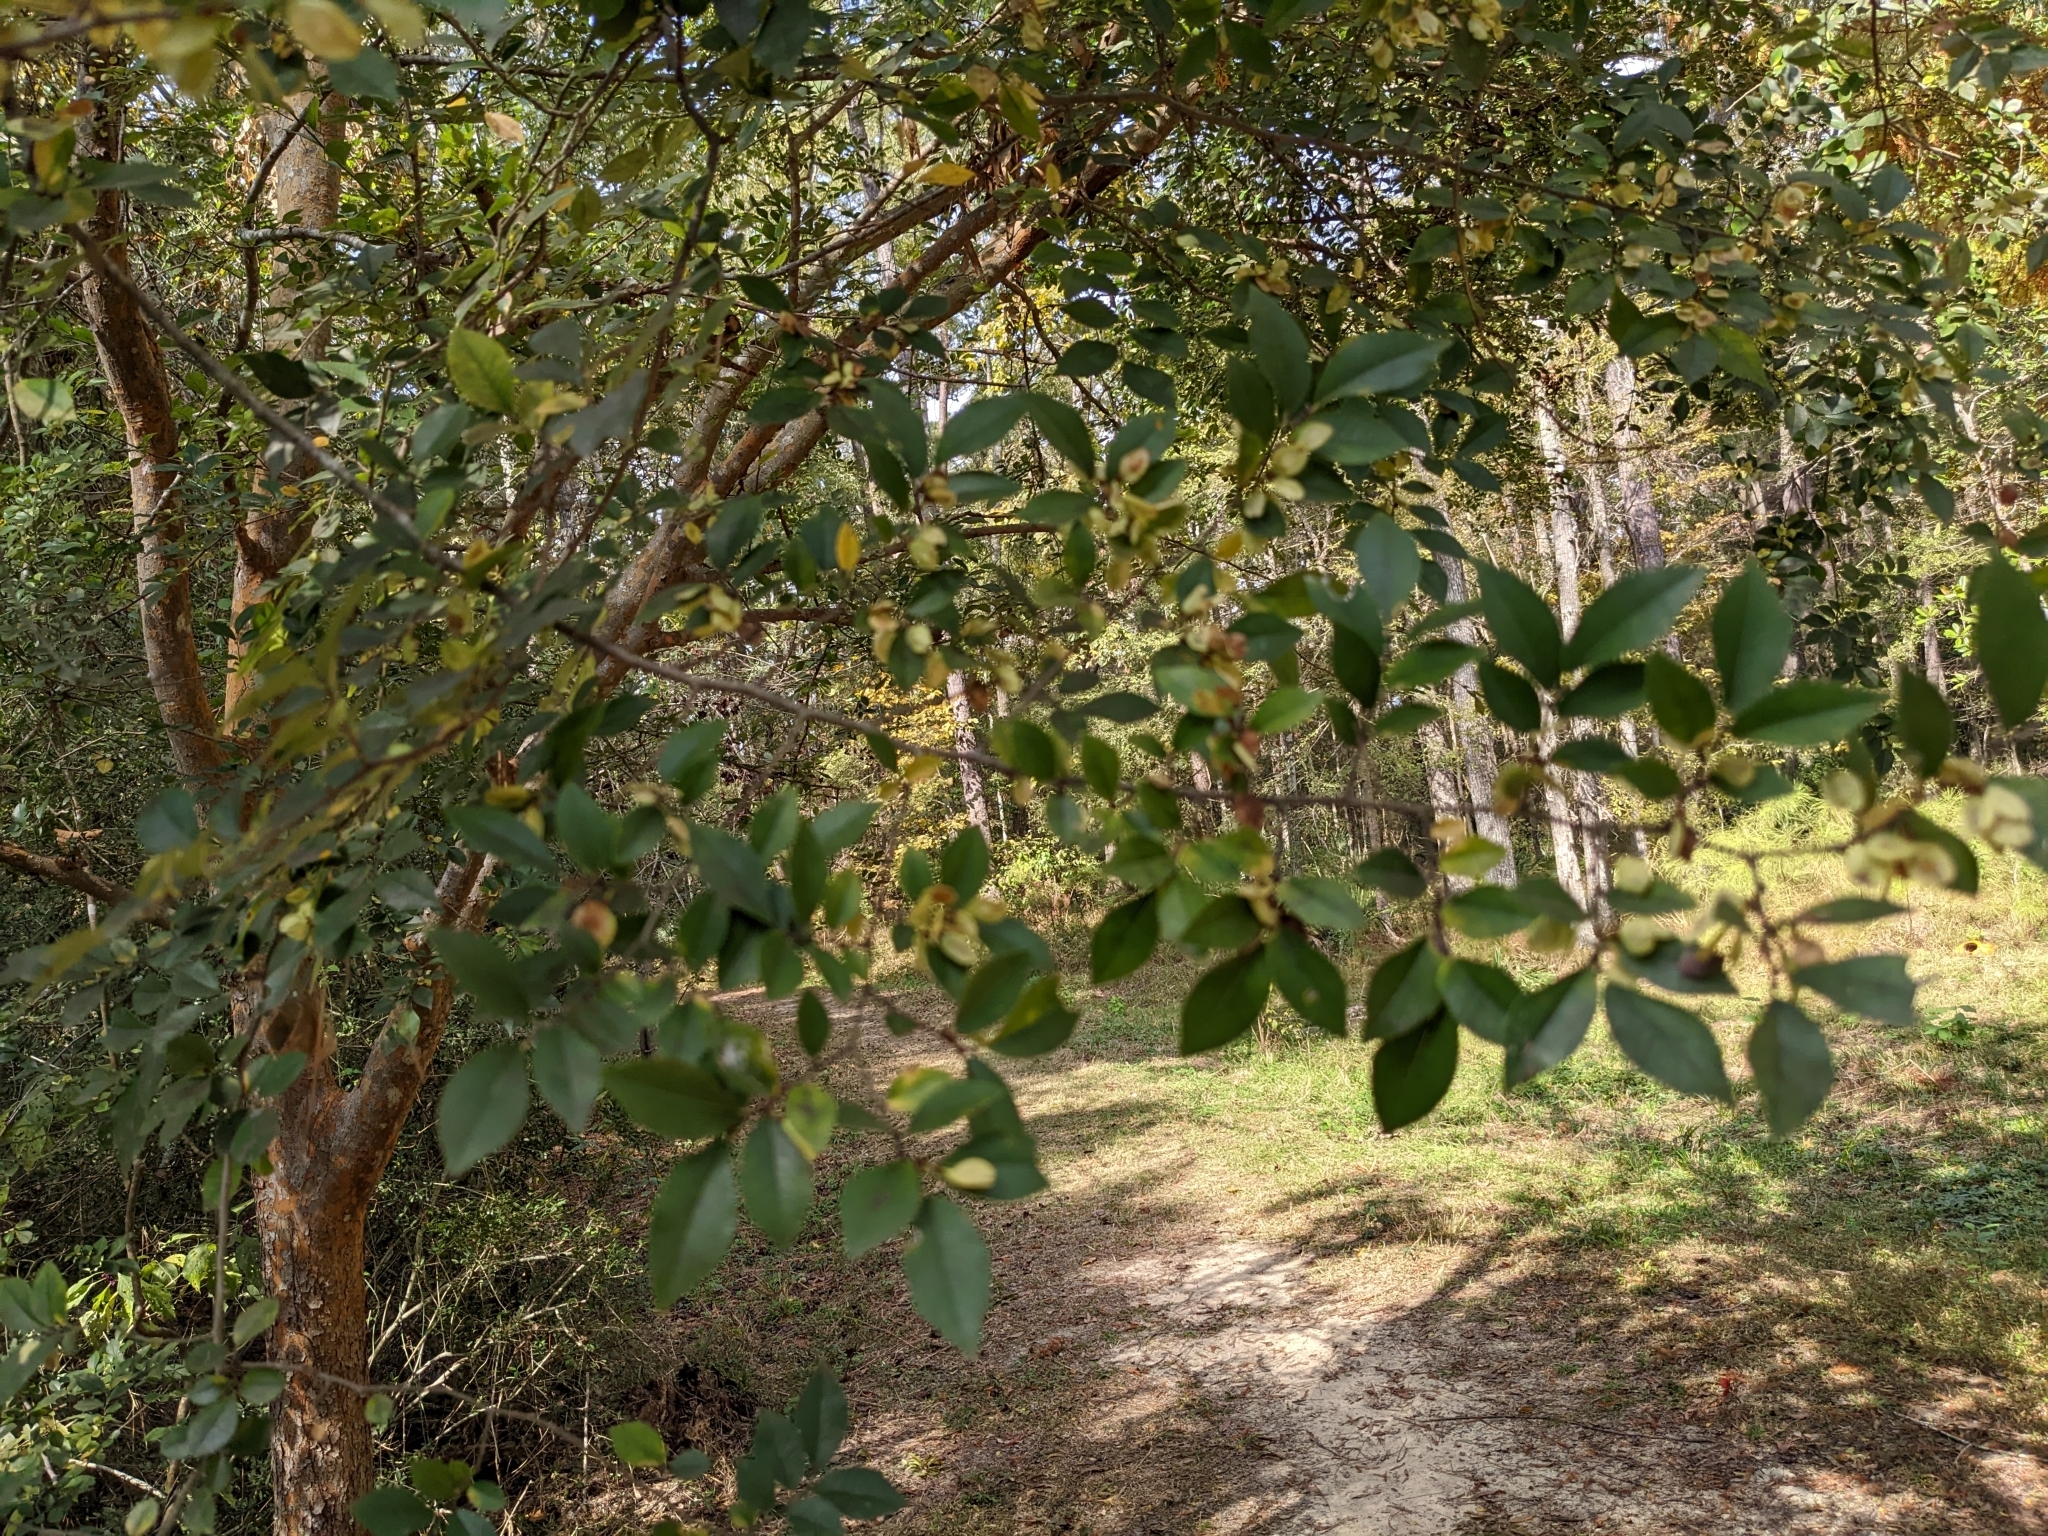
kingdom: Plantae
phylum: Tracheophyta
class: Magnoliopsida
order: Rosales
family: Ulmaceae
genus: Ulmus
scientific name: Ulmus parvifolia
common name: Chinese elm
